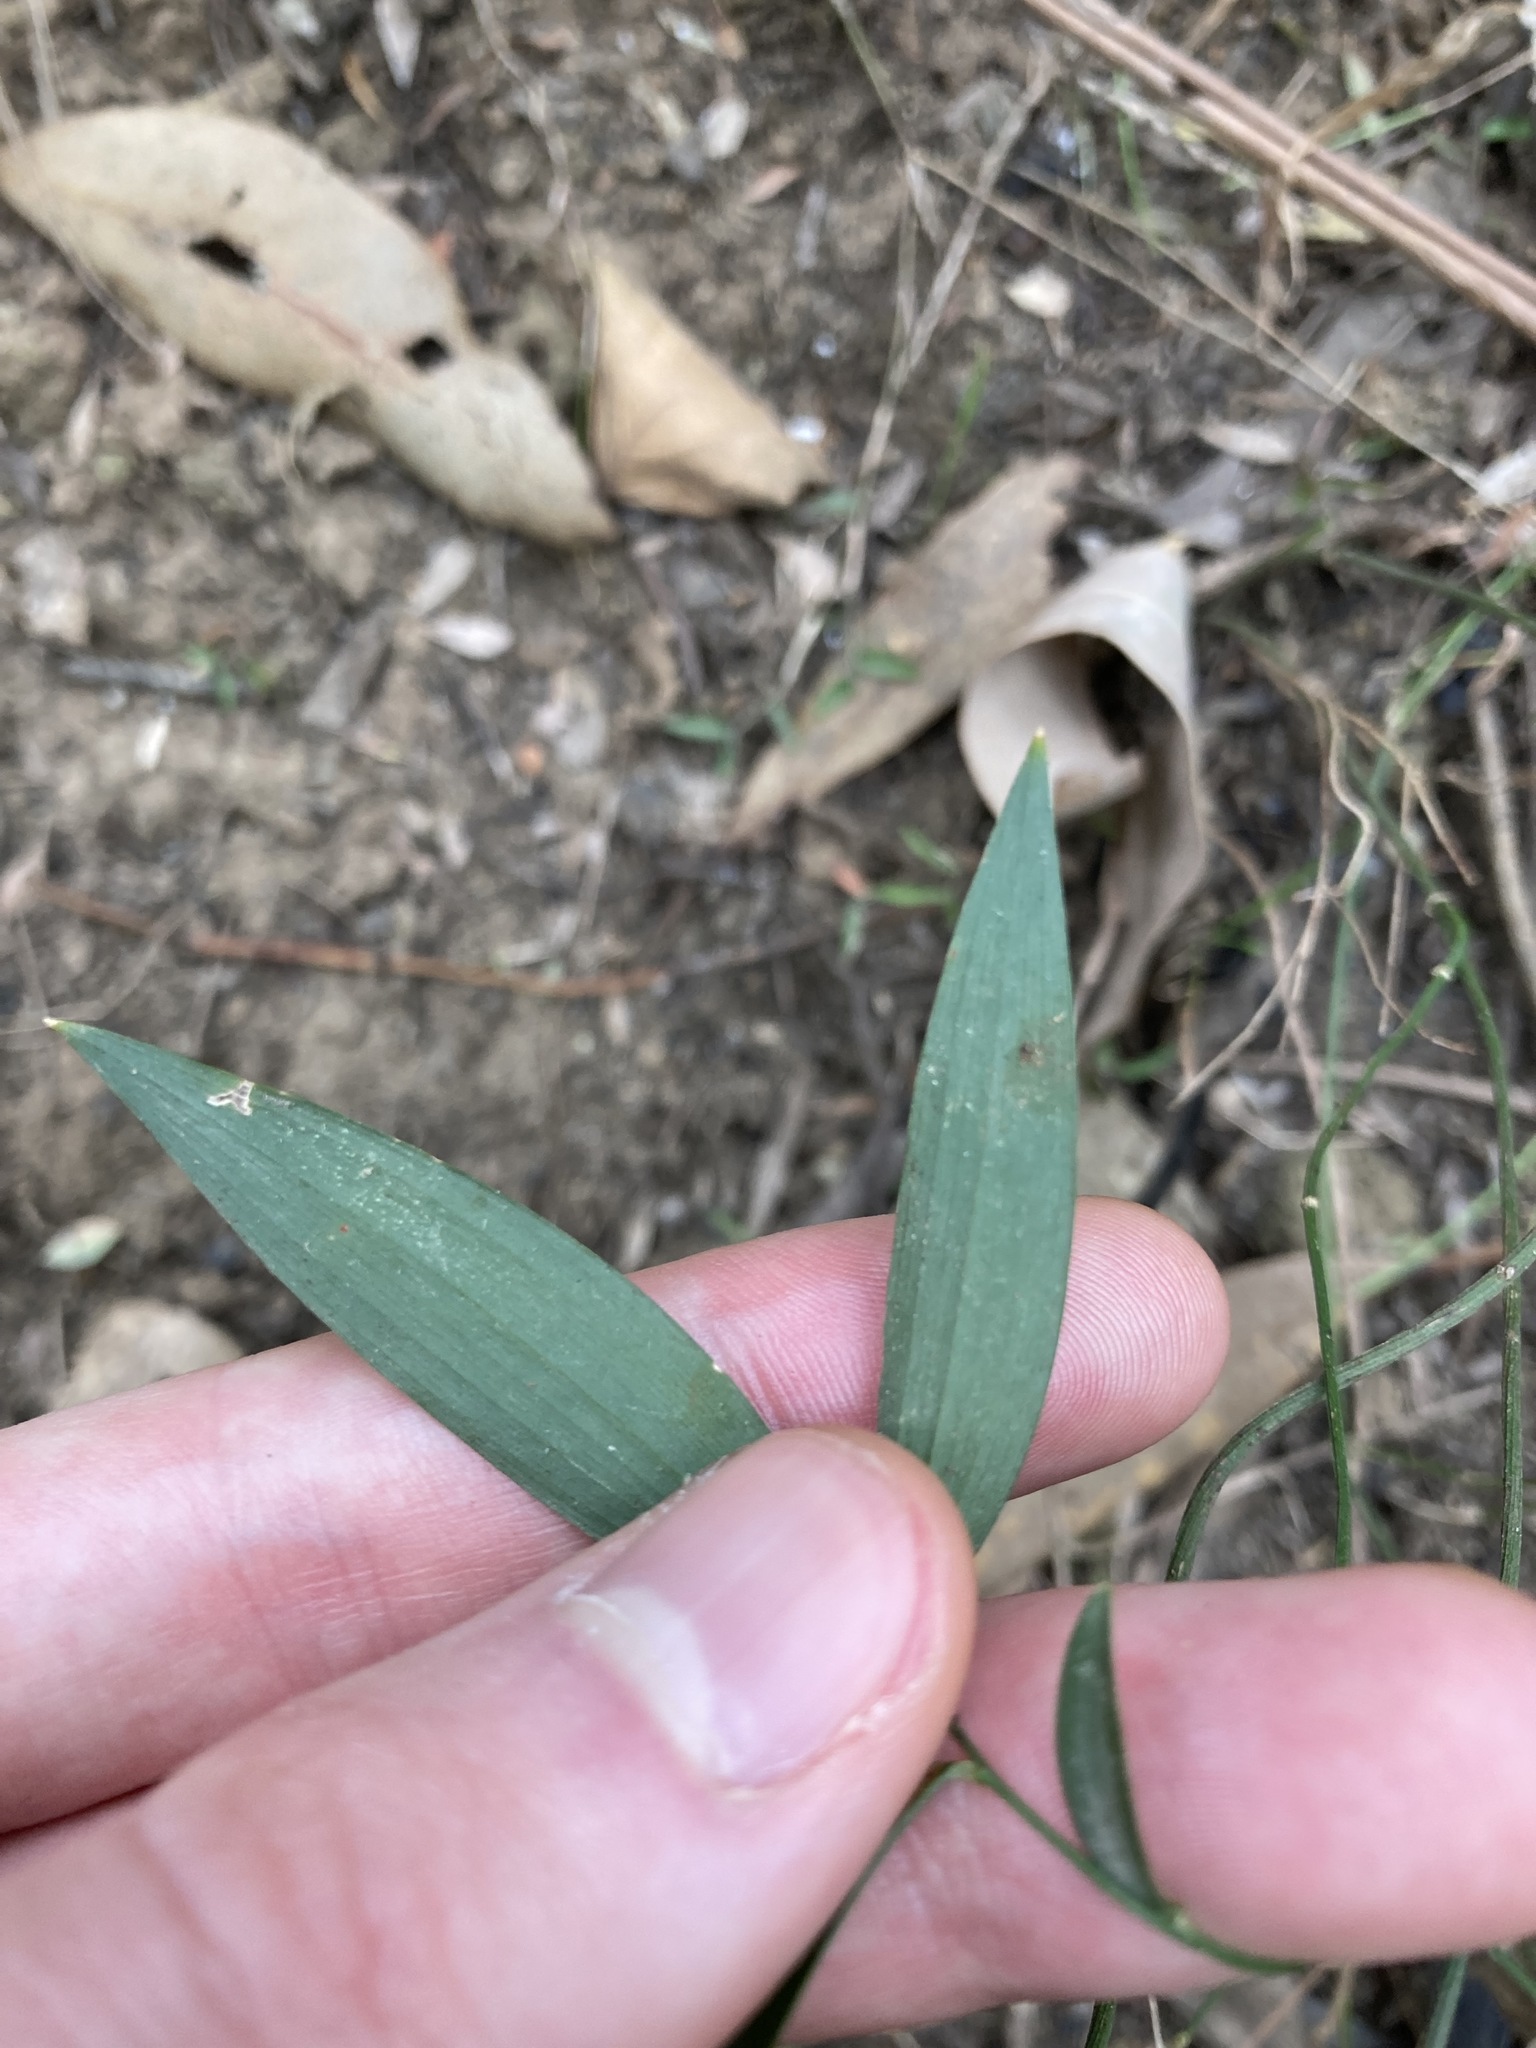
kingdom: Plantae
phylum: Tracheophyta
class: Liliopsida
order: Asparagales
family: Asparagaceae
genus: Eustrephus
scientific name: Eustrephus latifolius
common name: Orangevine
